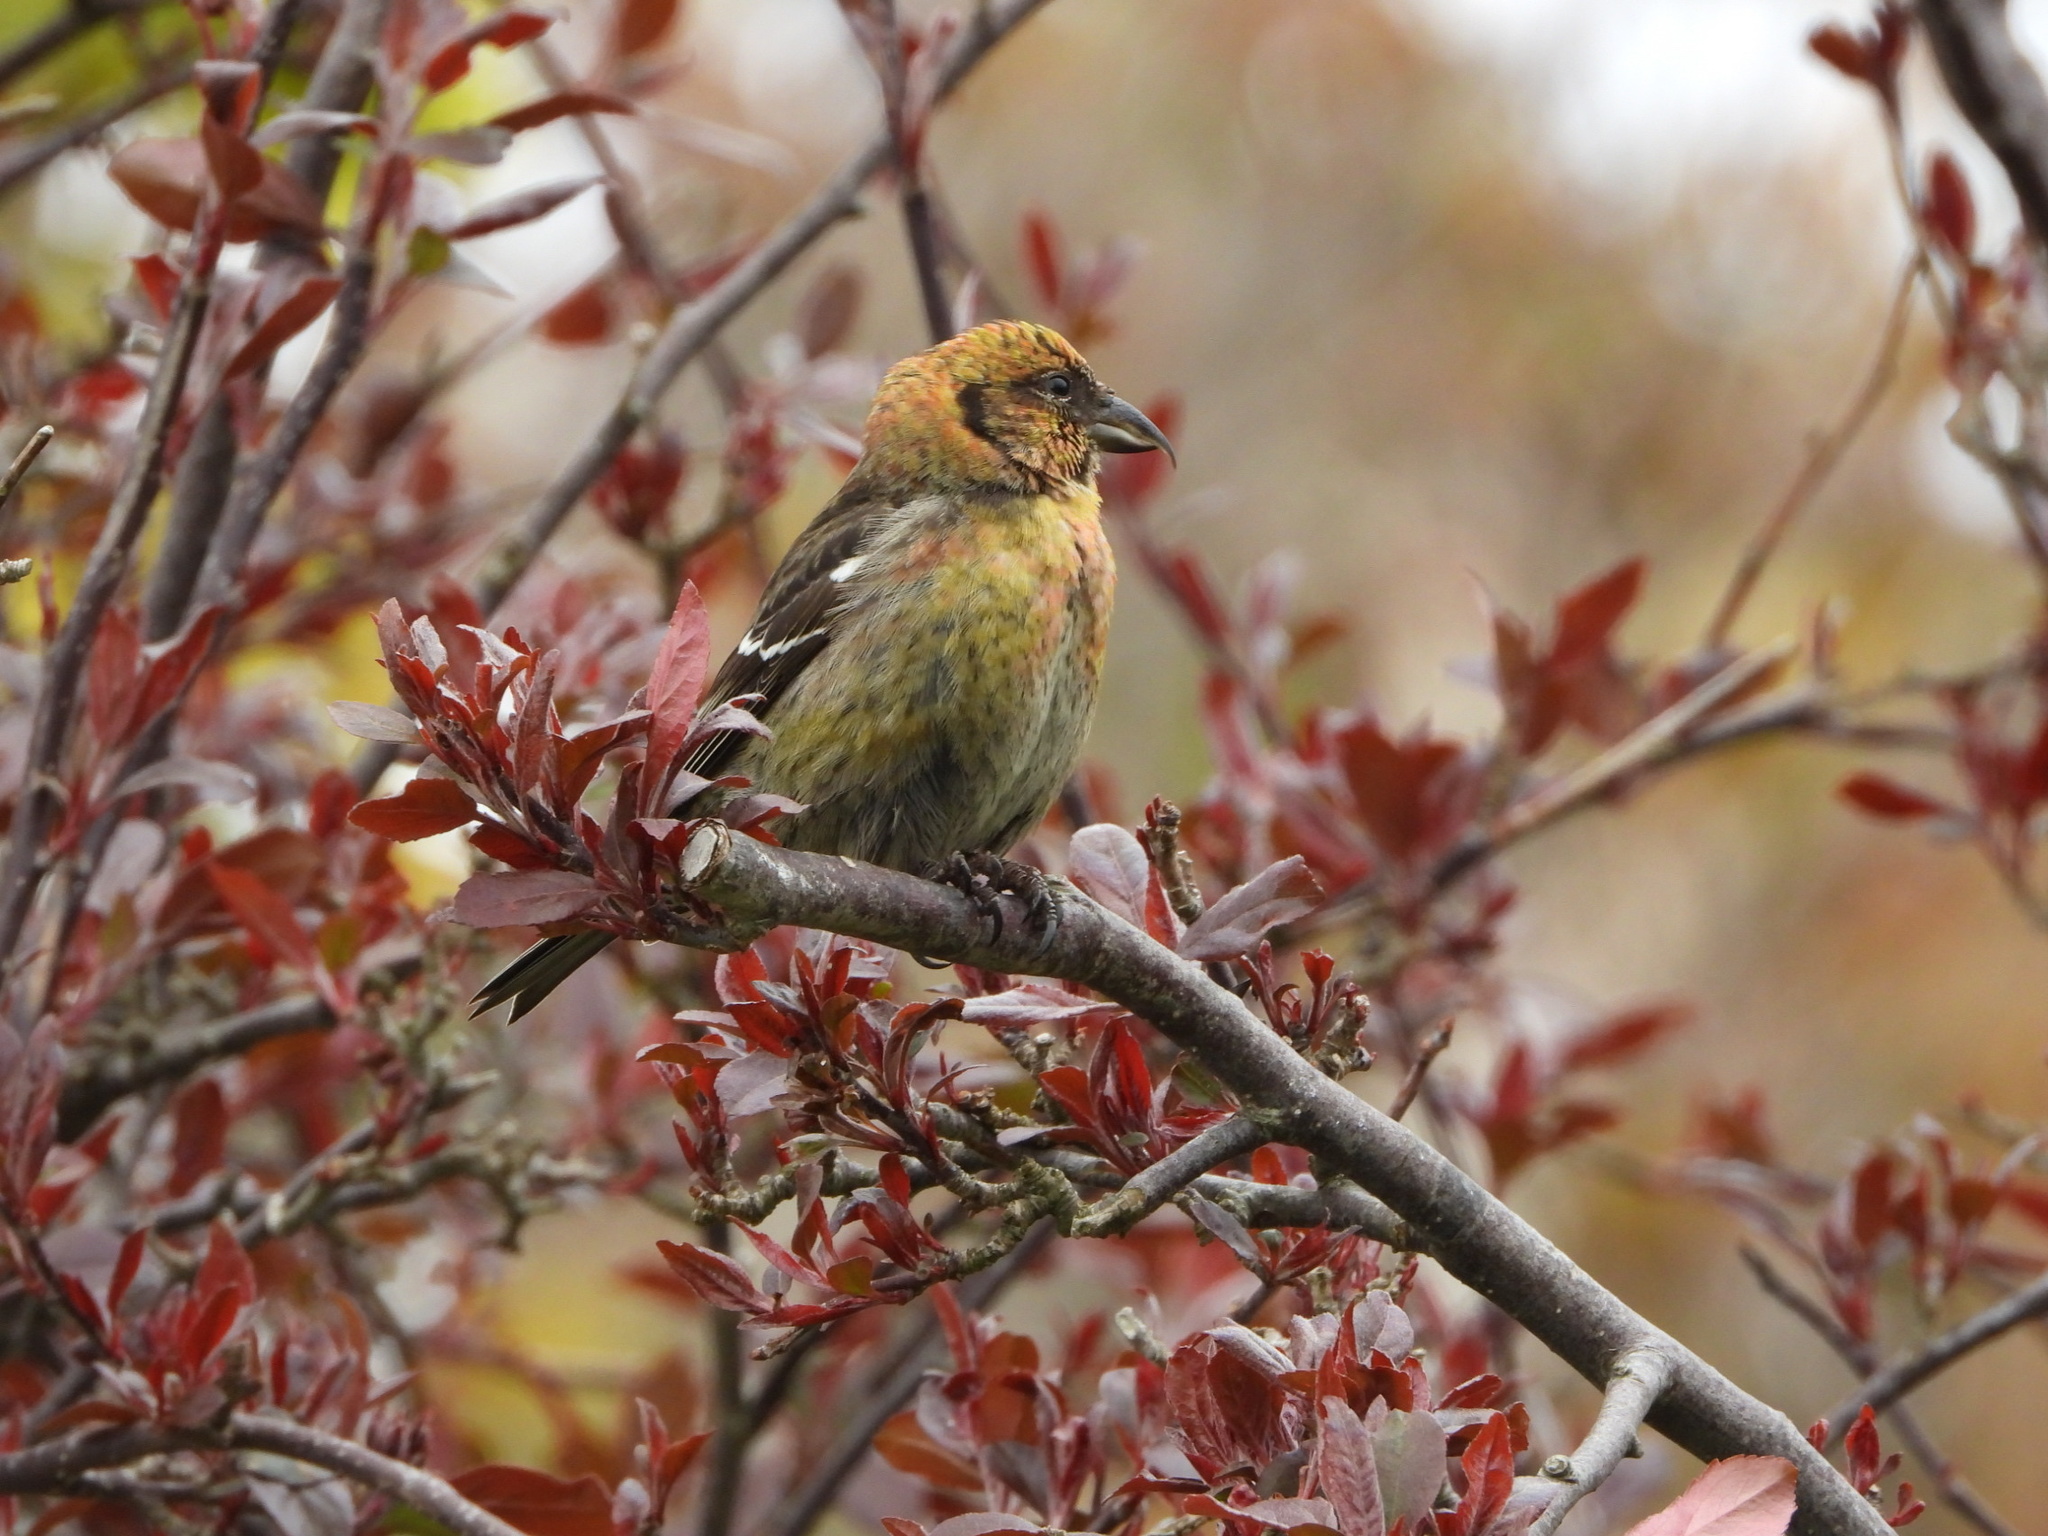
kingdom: Animalia
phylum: Chordata
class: Aves
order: Passeriformes
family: Fringillidae
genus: Loxia
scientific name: Loxia leucoptera
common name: Two-barred crossbill
